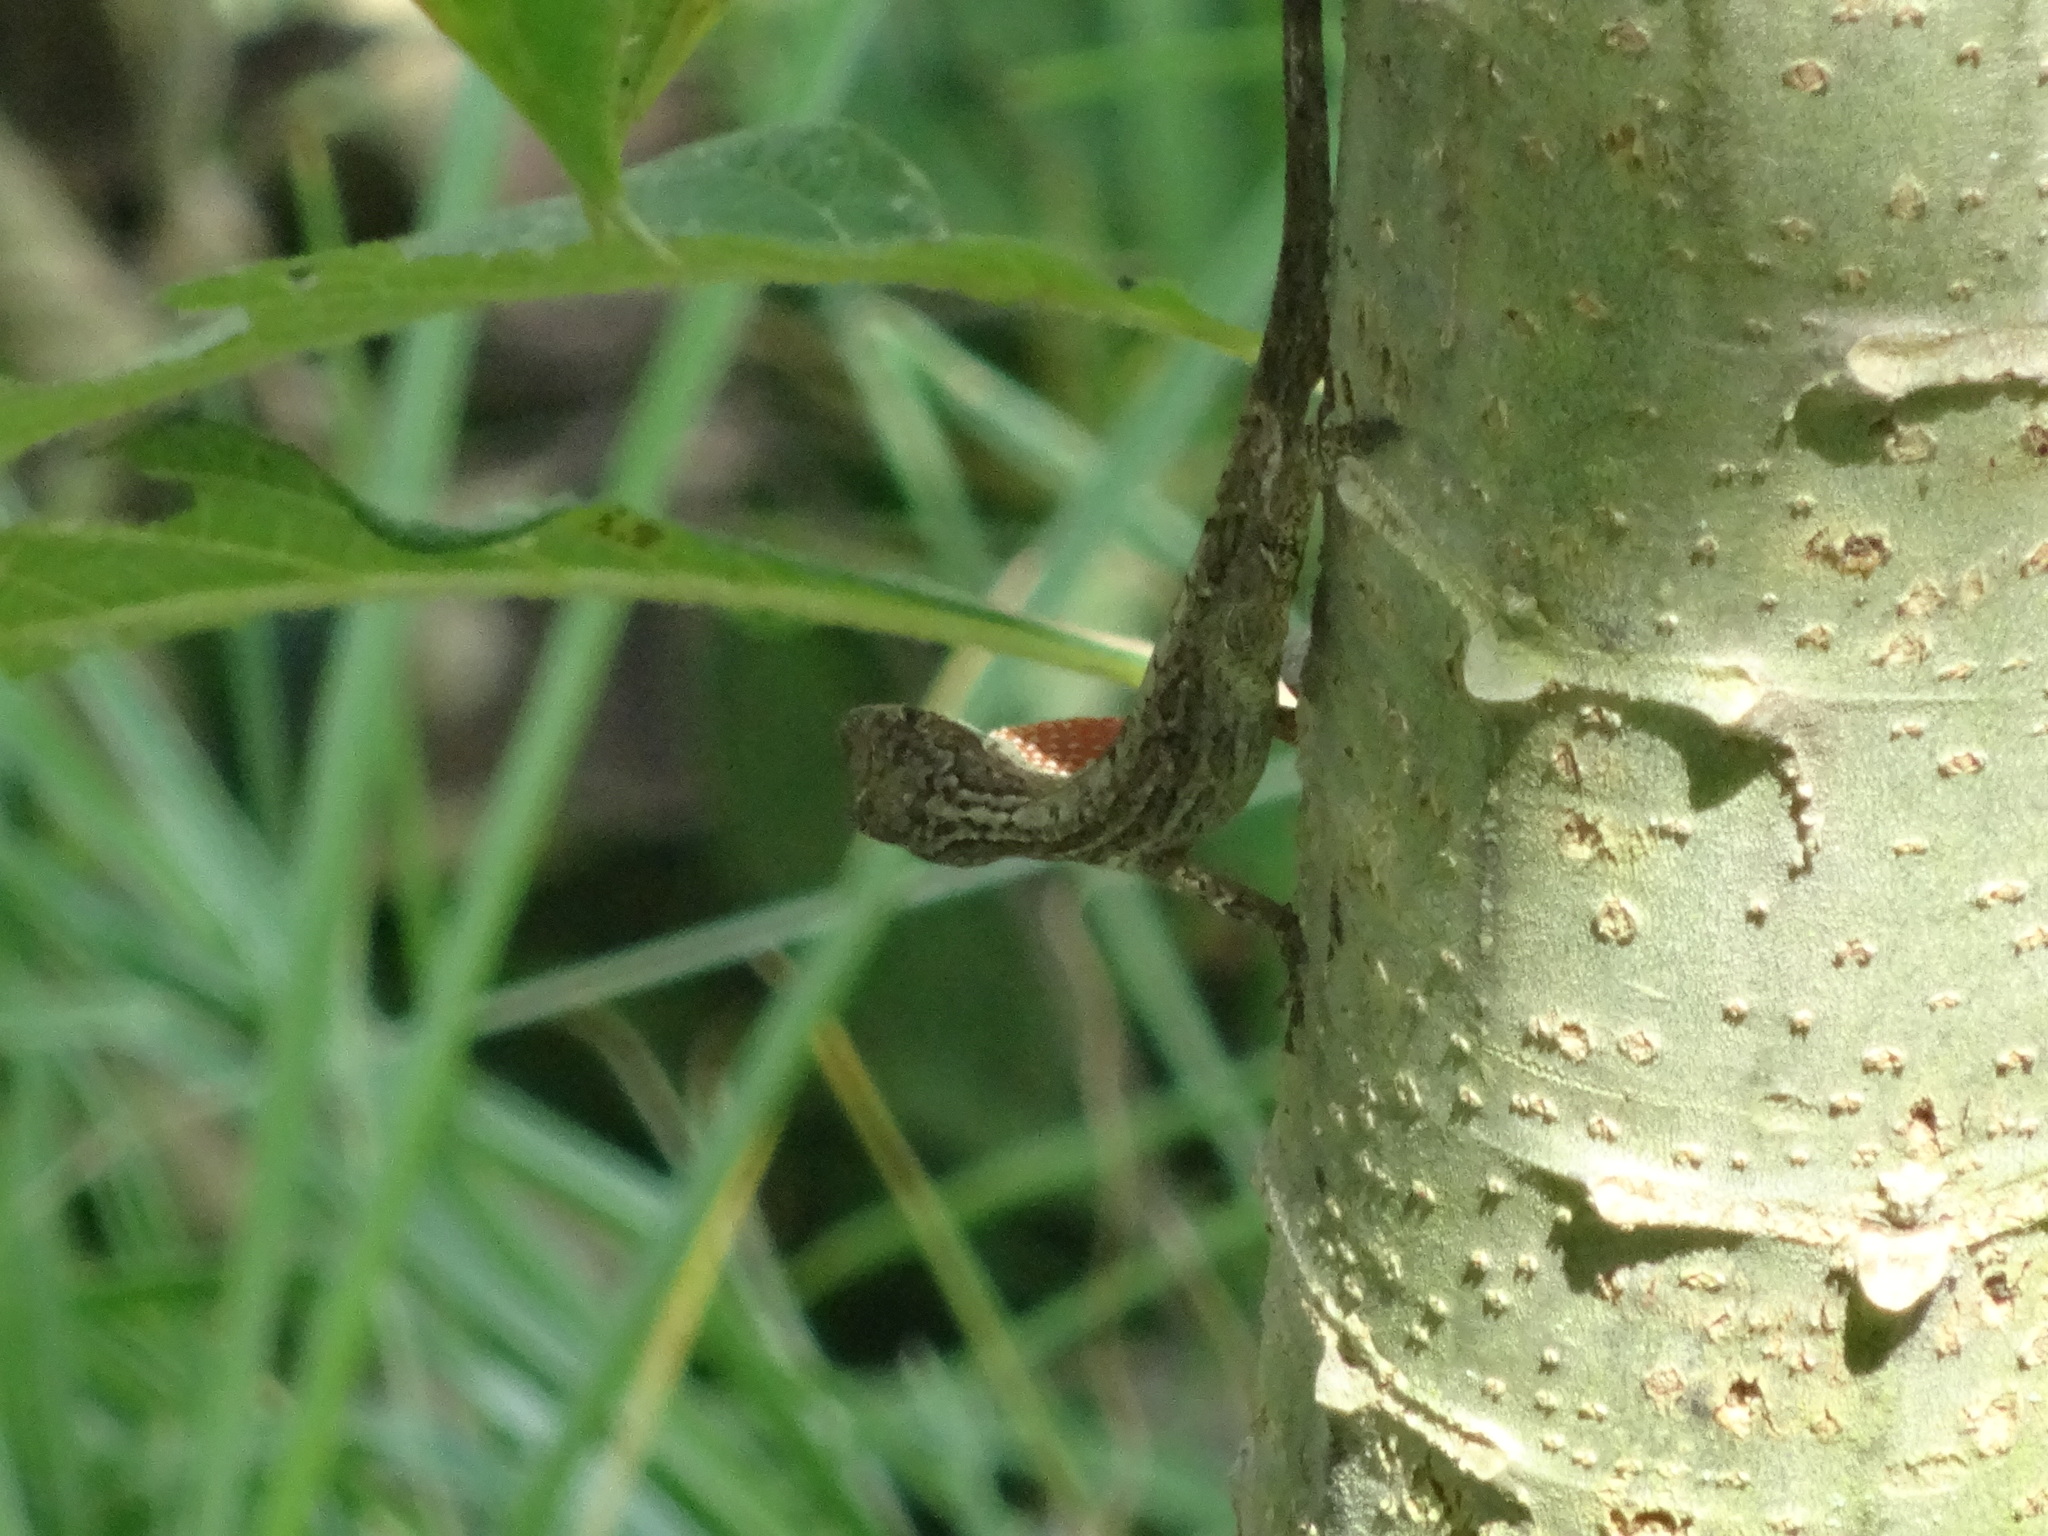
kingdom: Animalia
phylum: Chordata
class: Squamata
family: Dactyloidae
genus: Anolis
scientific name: Anolis mariarum
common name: Blemished anole
